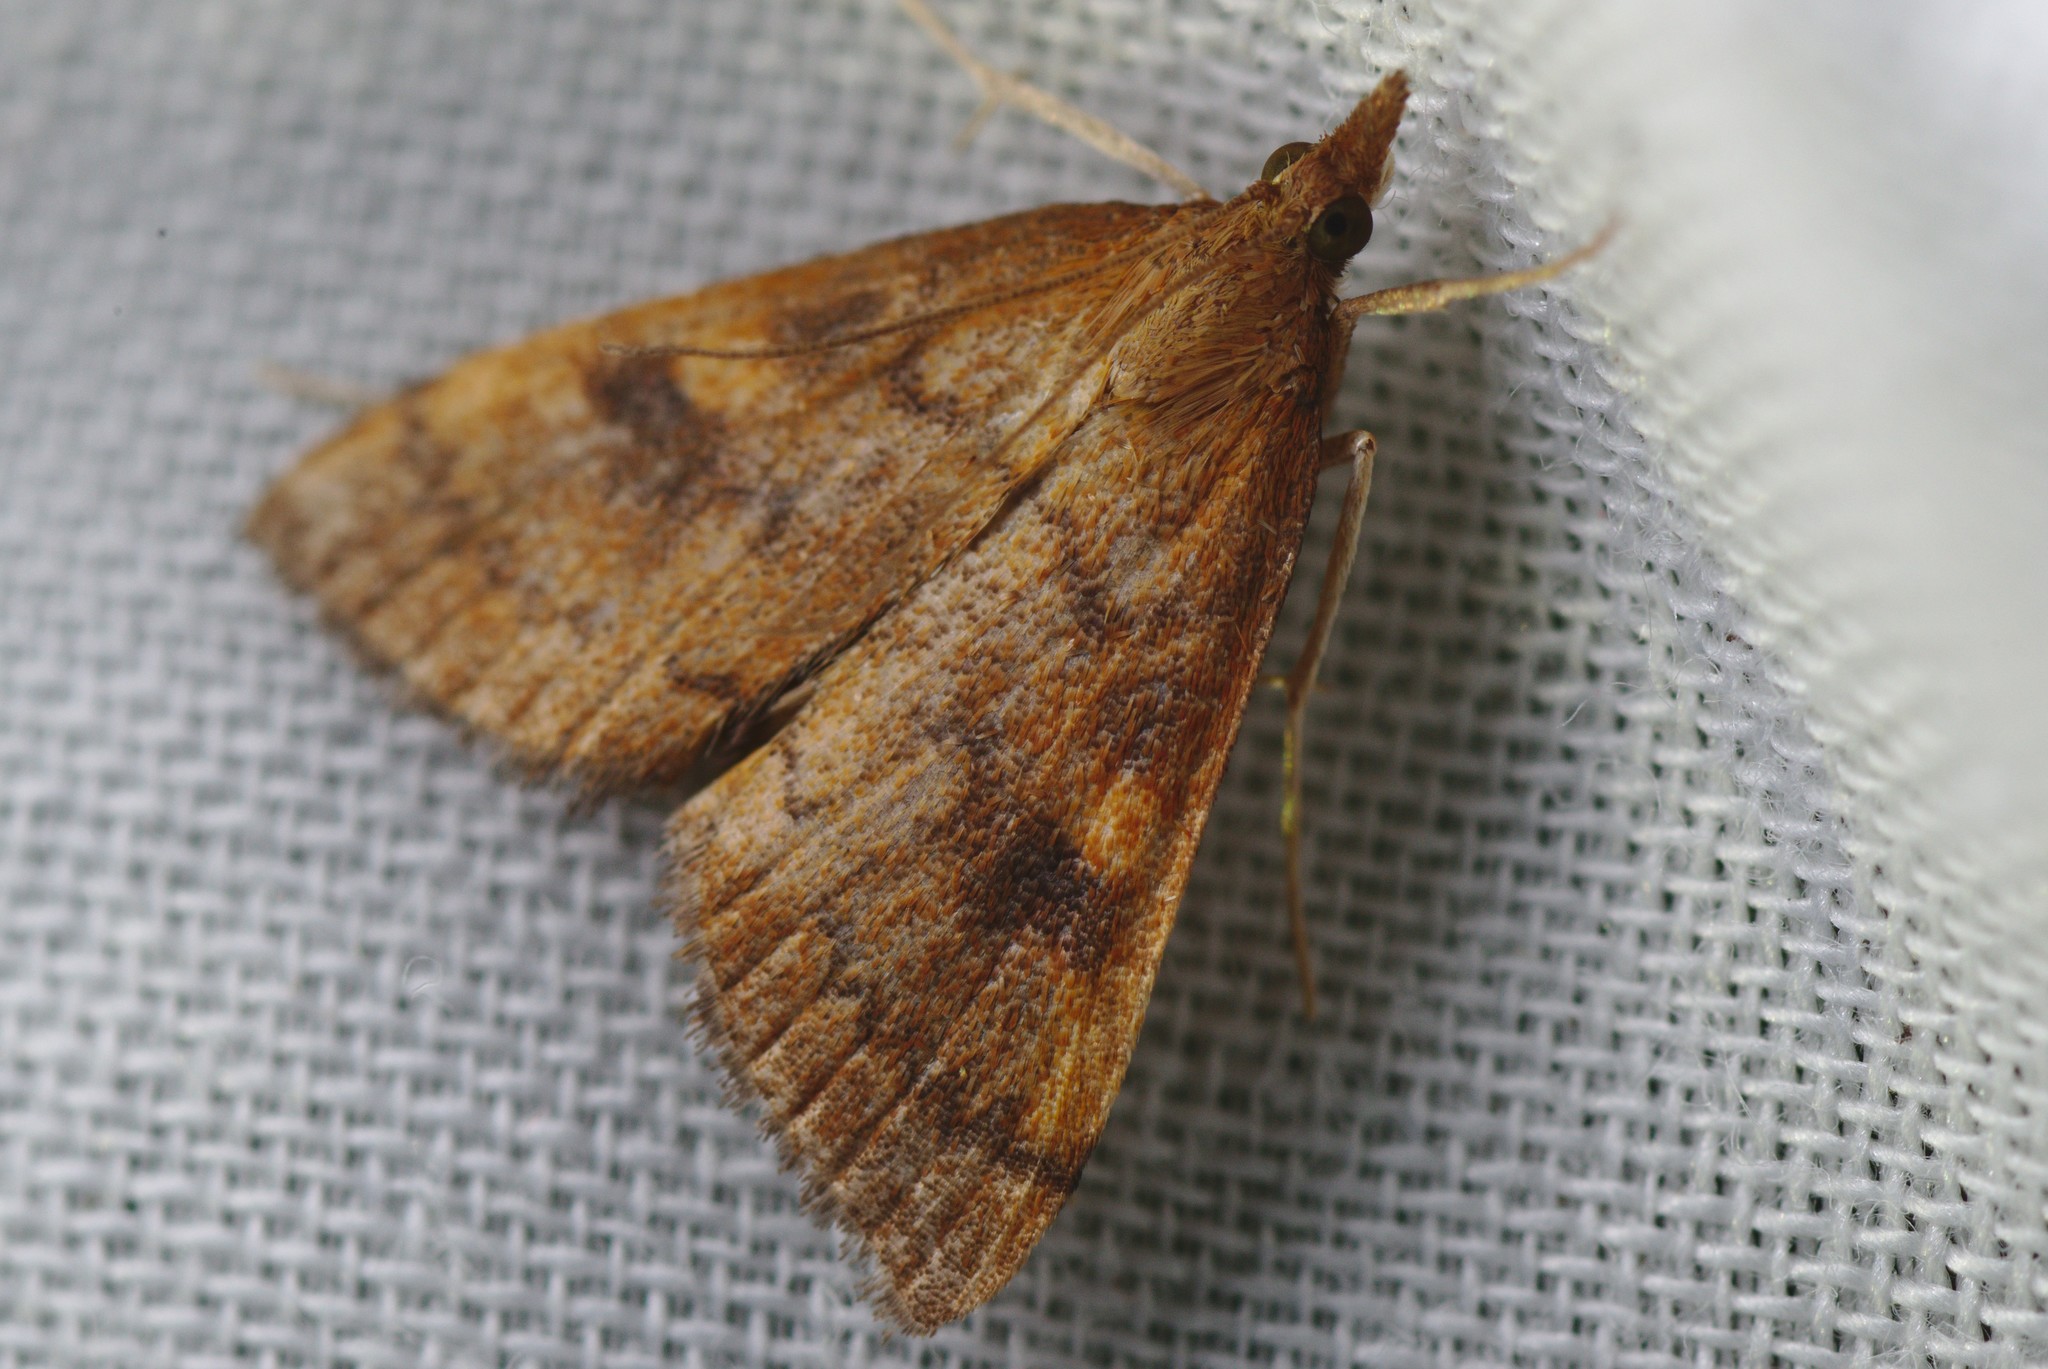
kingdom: Animalia
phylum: Arthropoda
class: Insecta
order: Lepidoptera
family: Crambidae
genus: Udea
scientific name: Udea Mnesictena flavidalis
